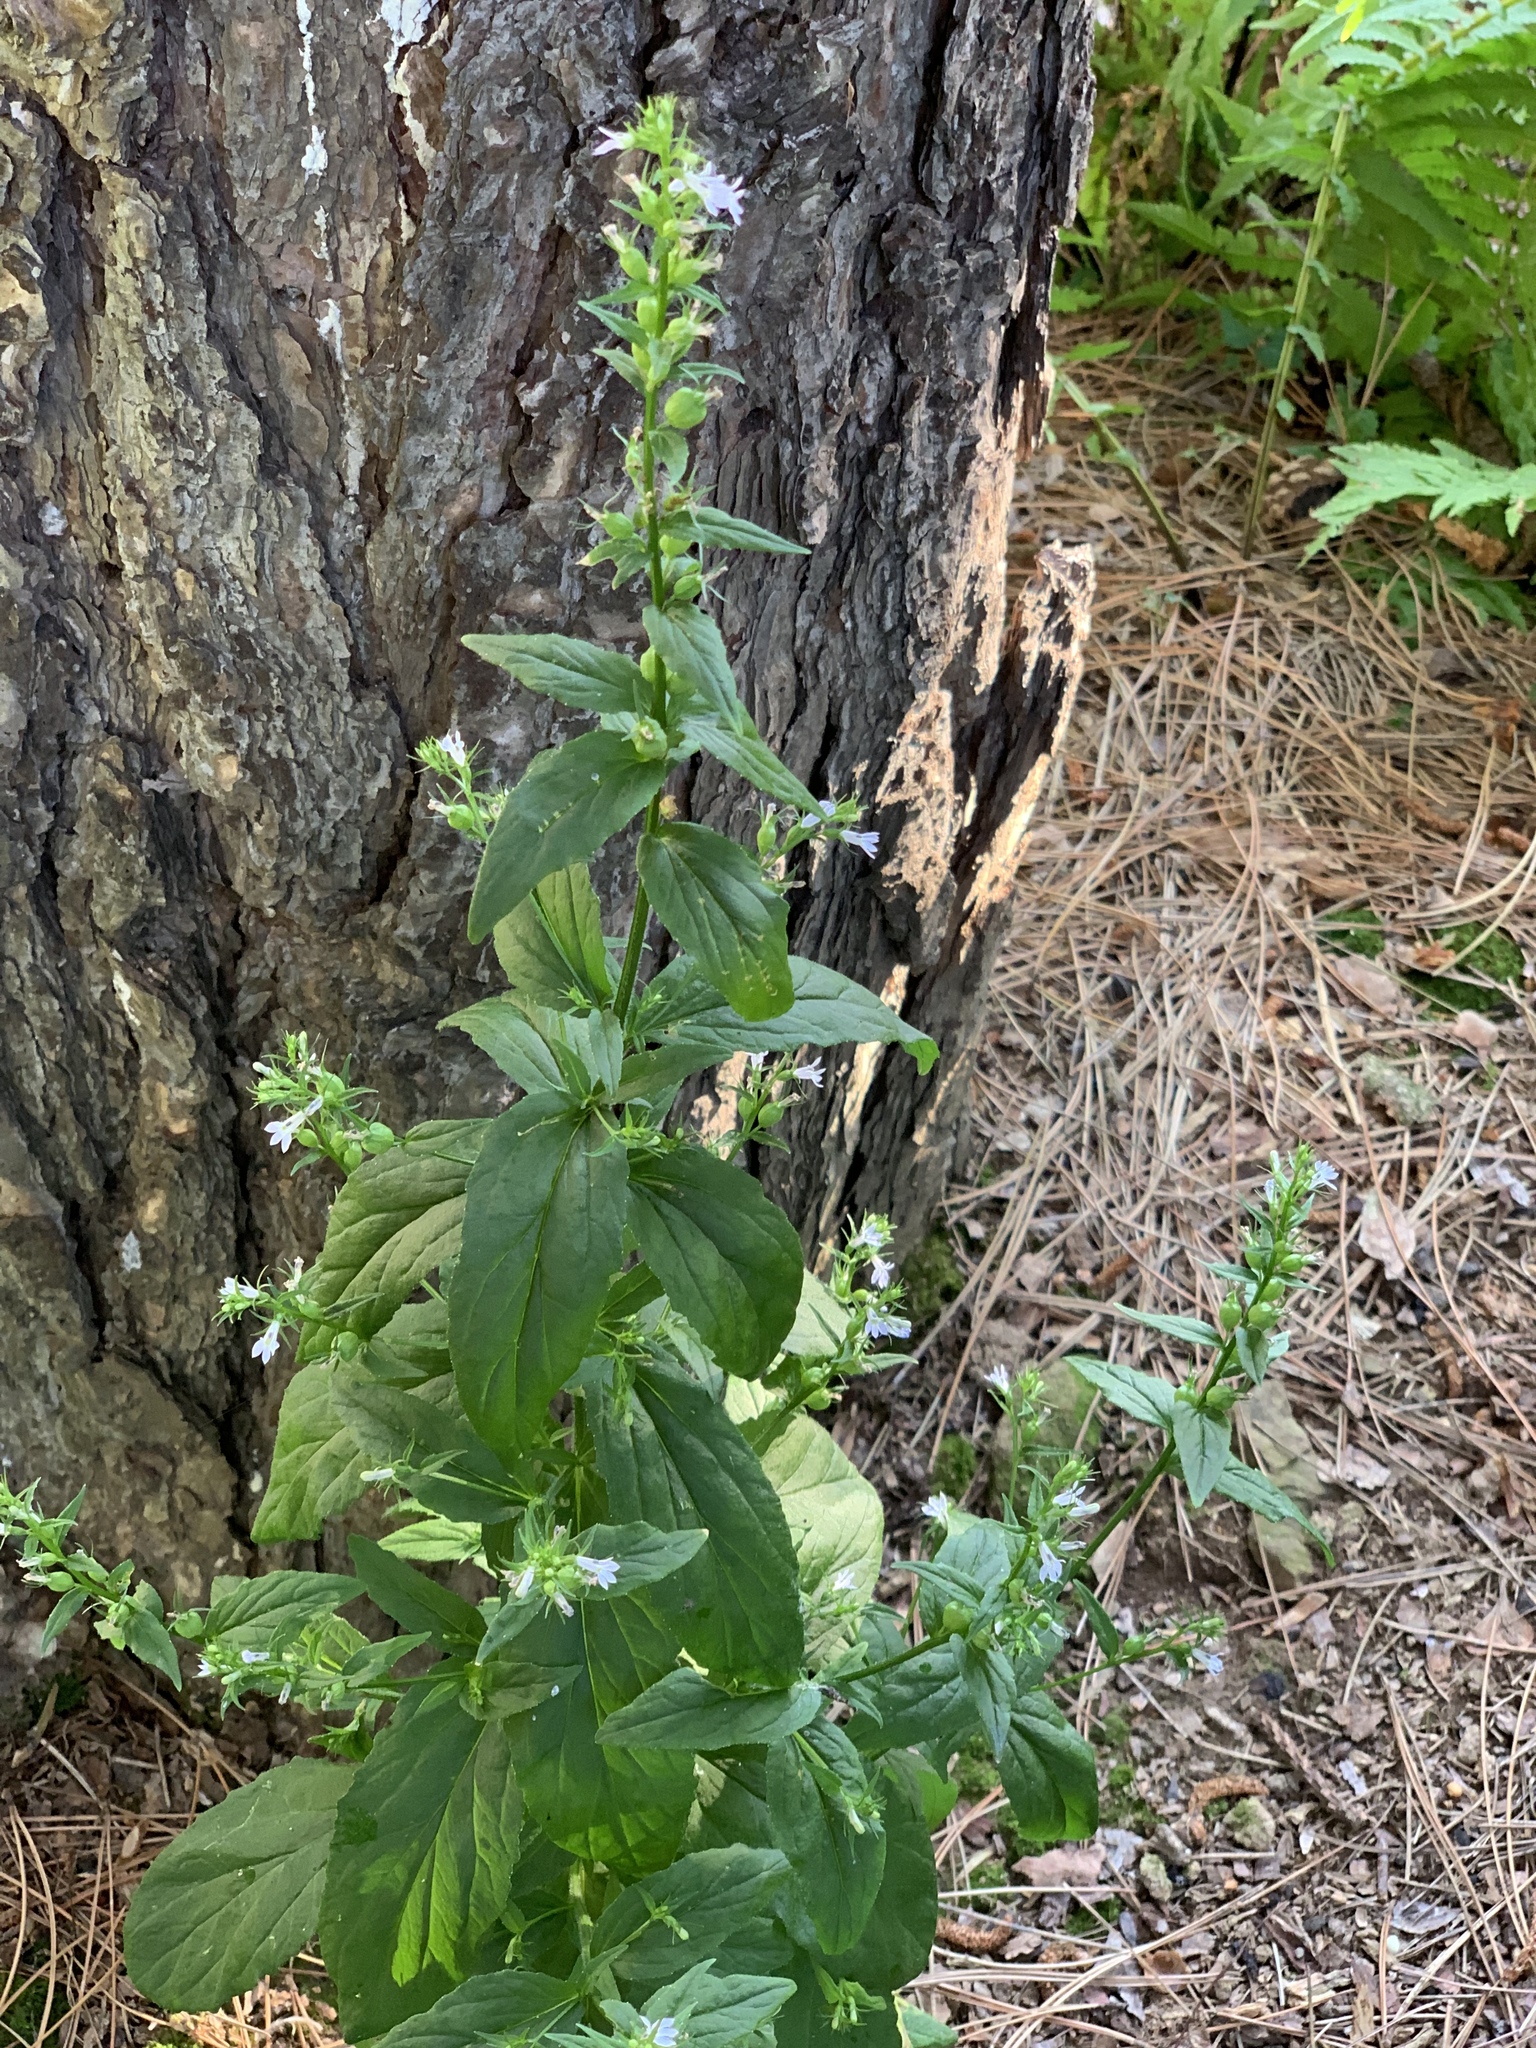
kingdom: Plantae
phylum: Tracheophyta
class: Magnoliopsida
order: Asterales
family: Campanulaceae
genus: Lobelia
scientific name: Lobelia inflata
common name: Indian tobacco
